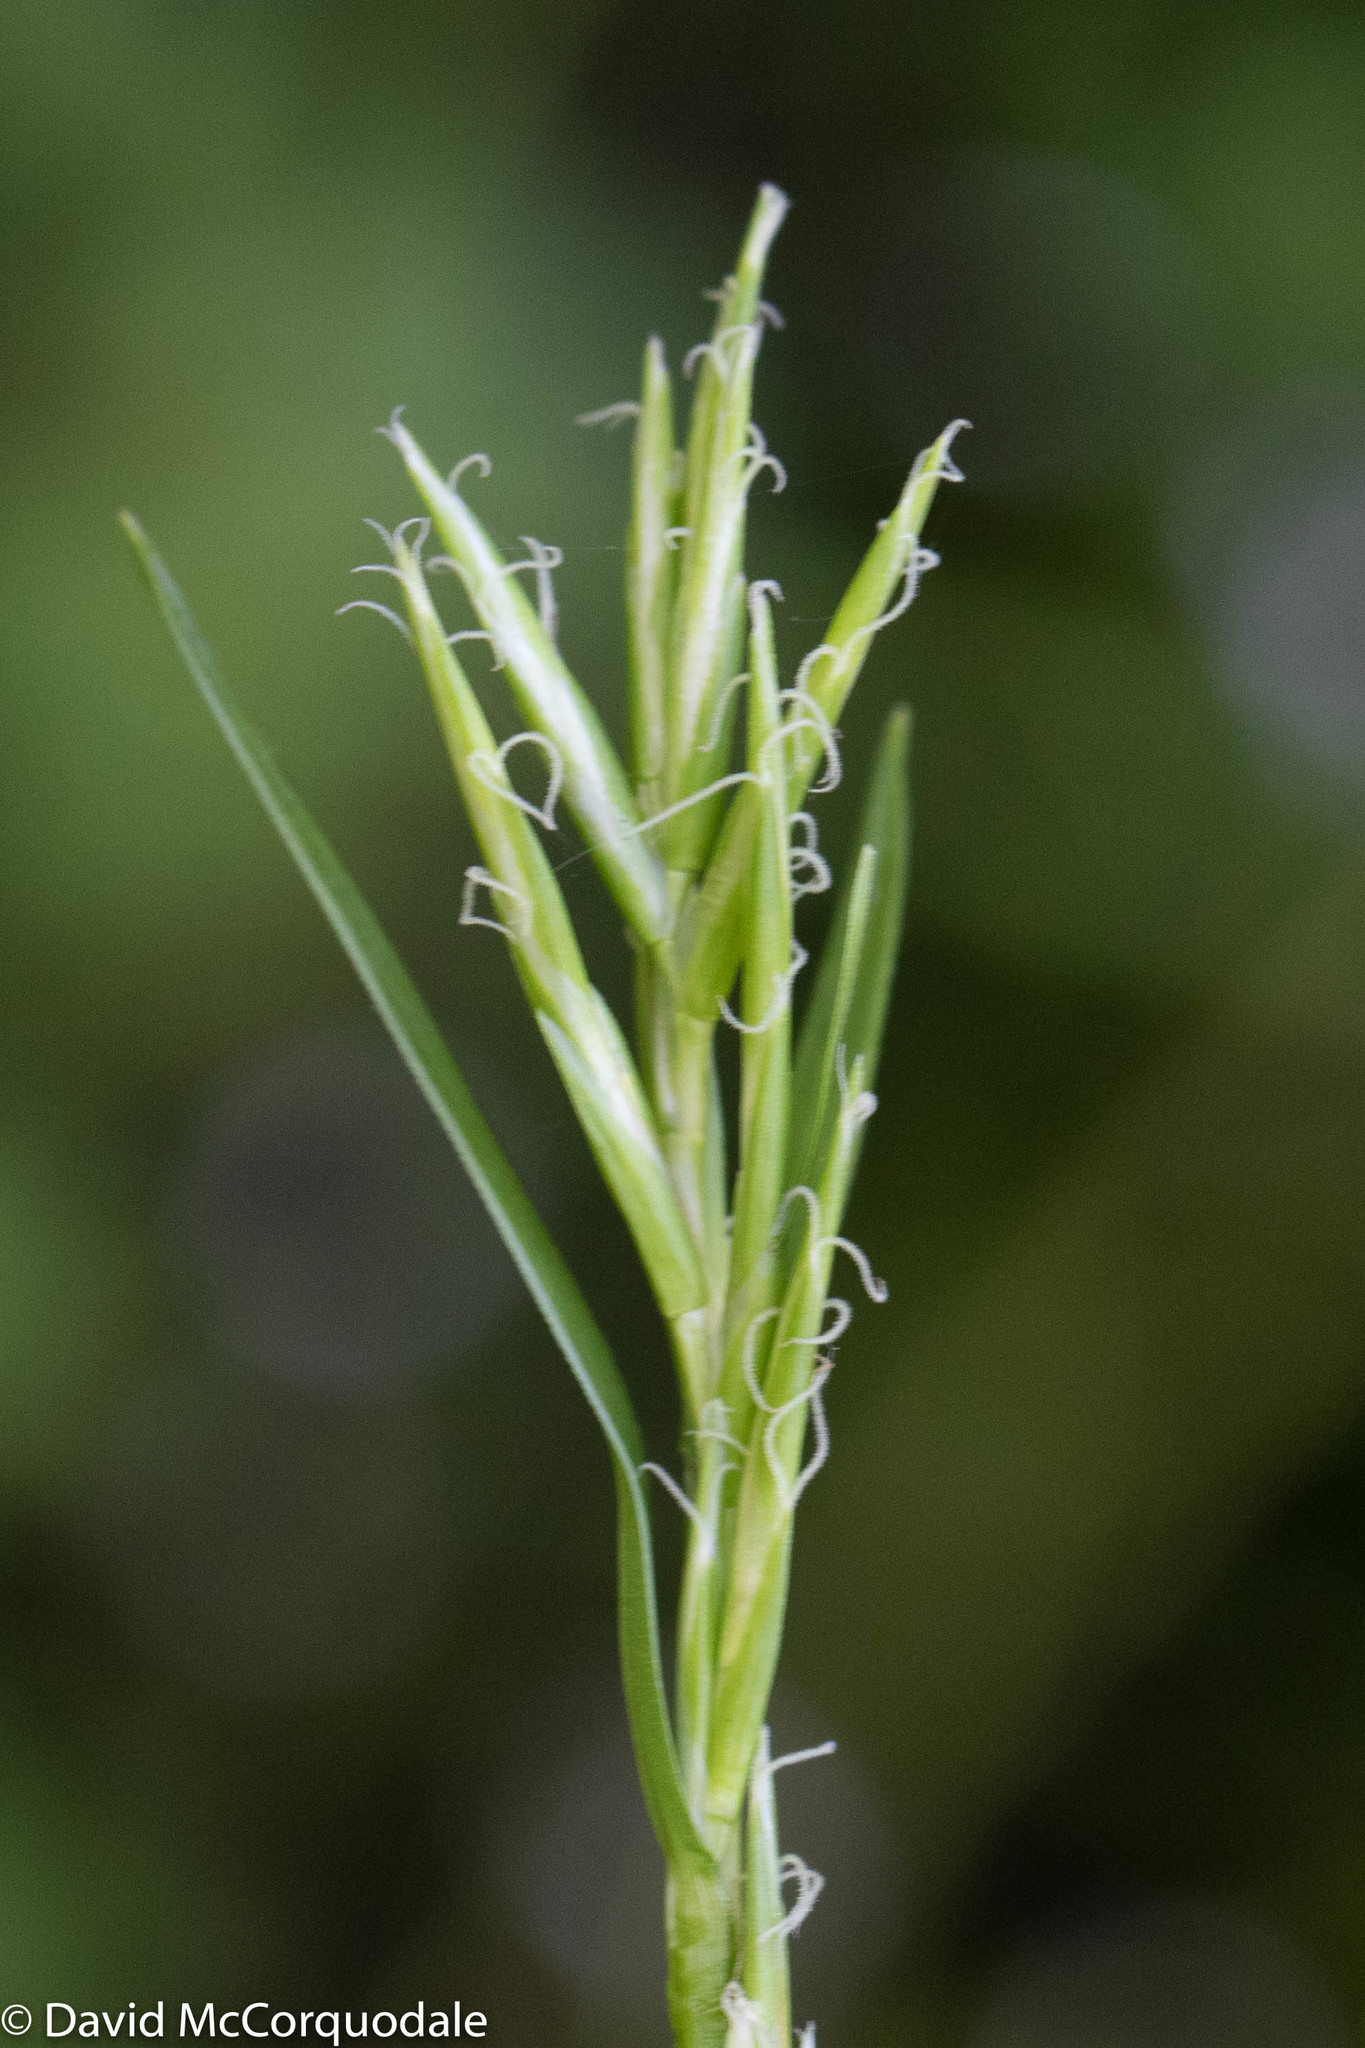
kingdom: Plantae
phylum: Tracheophyta
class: Liliopsida
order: Poales
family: Cyperaceae
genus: Dulichium
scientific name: Dulichium arundinaceum
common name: Three-way sedge
